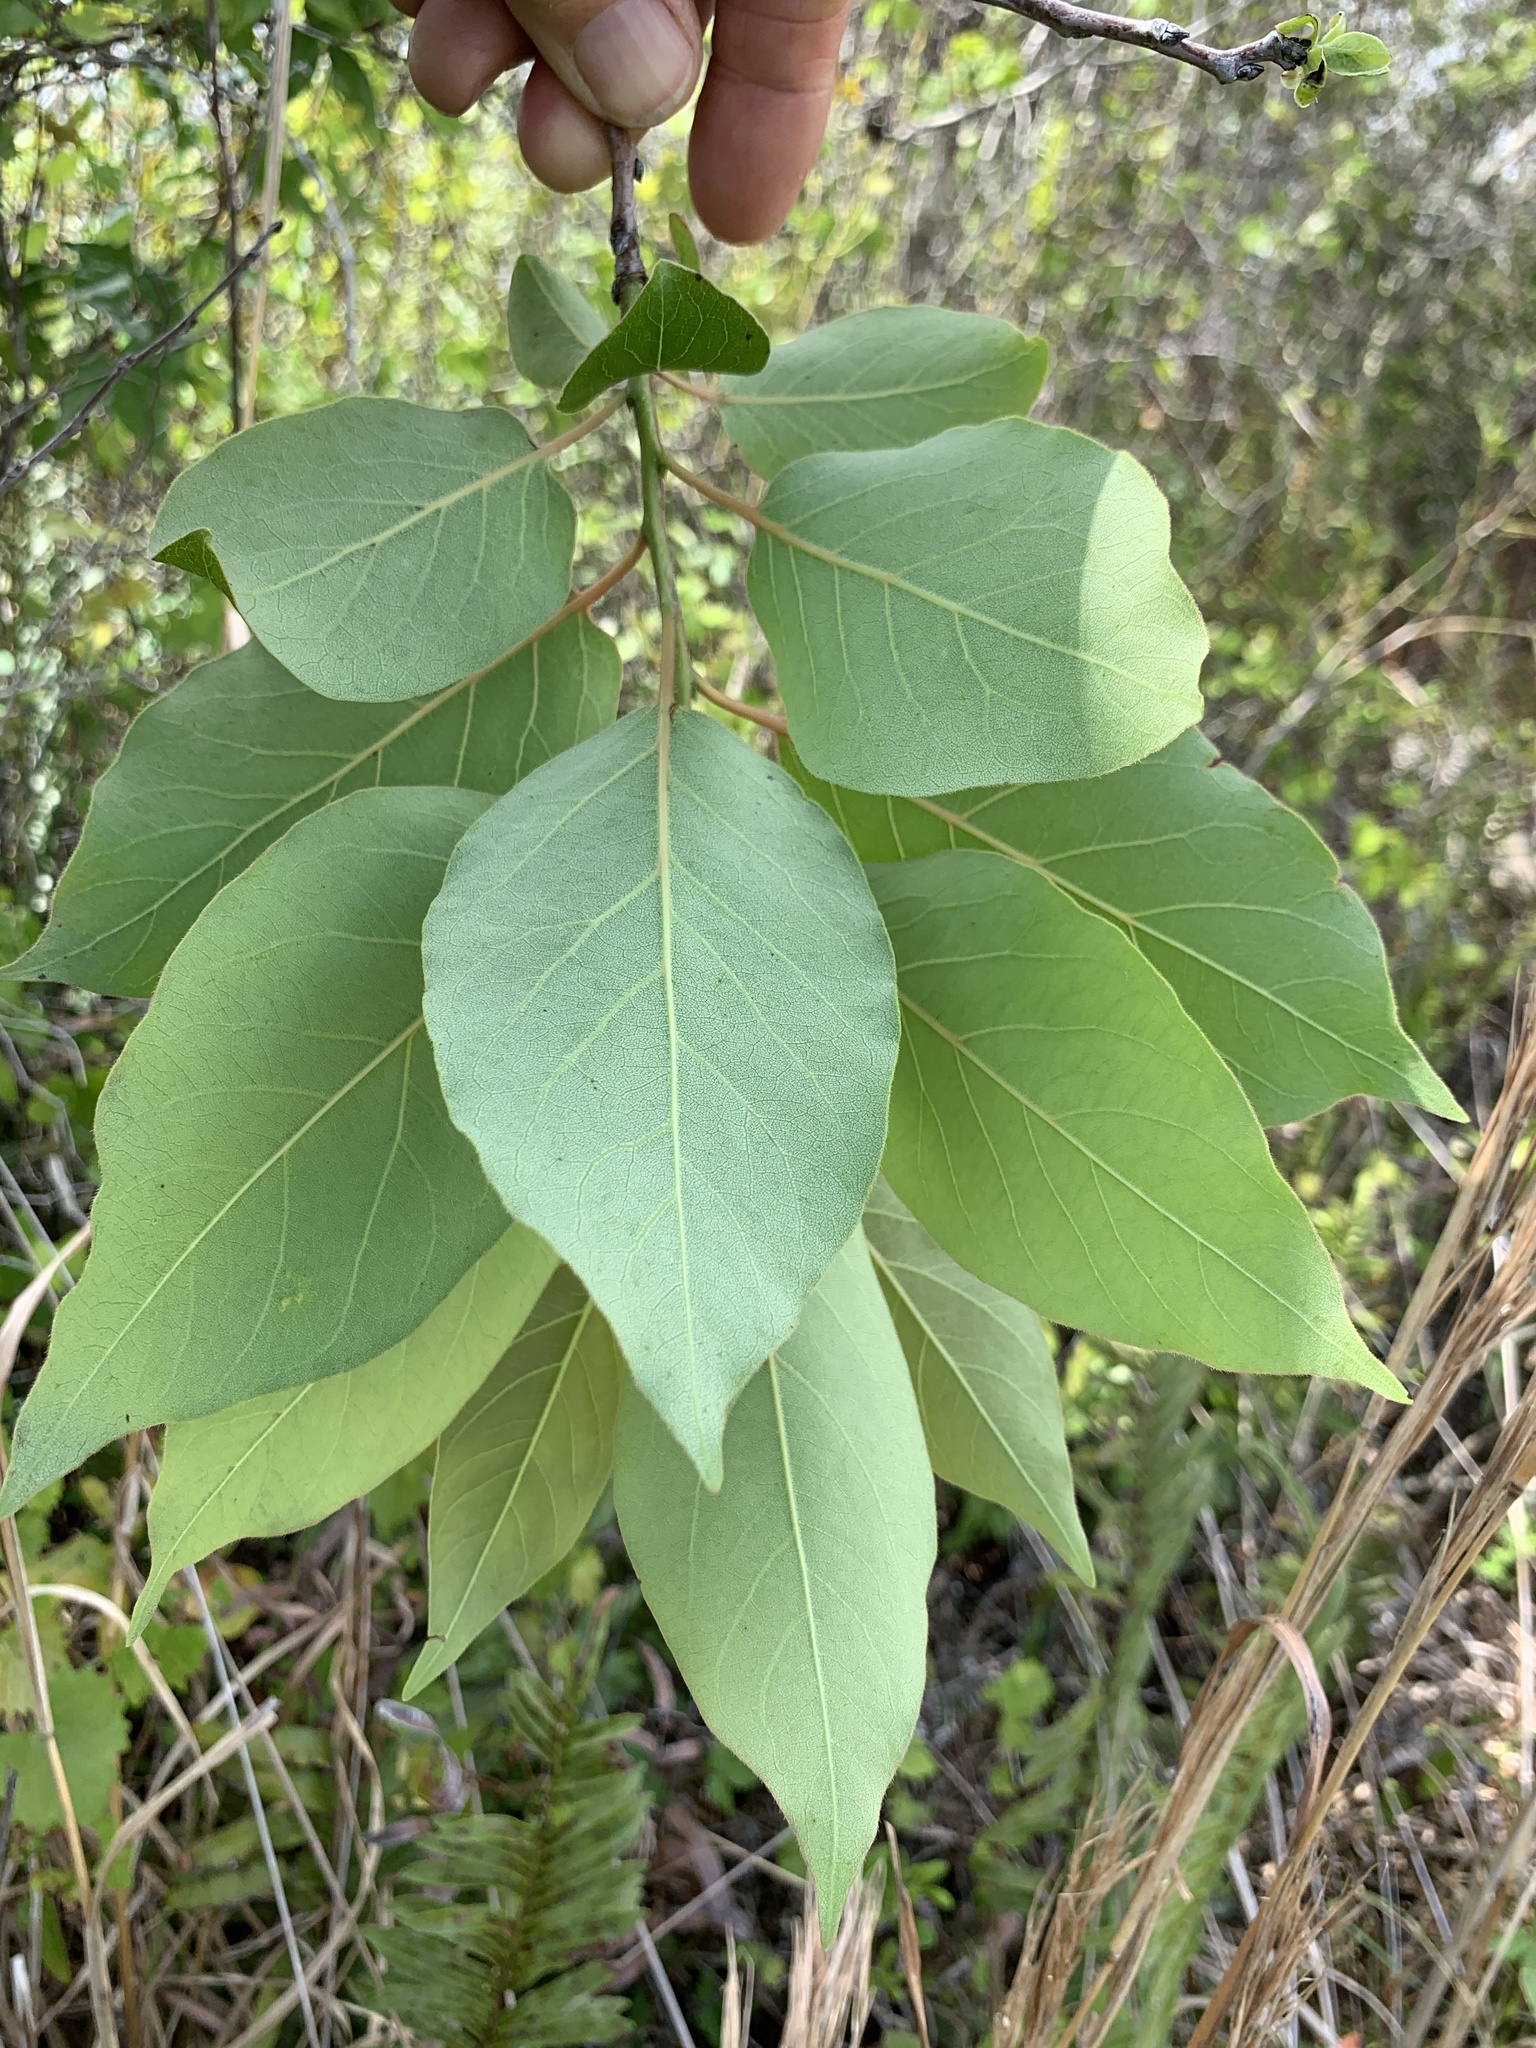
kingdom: Plantae
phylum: Tracheophyta
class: Magnoliopsida
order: Ericales
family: Ebenaceae
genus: Diospyros
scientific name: Diospyros virginiana
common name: Persimmon
